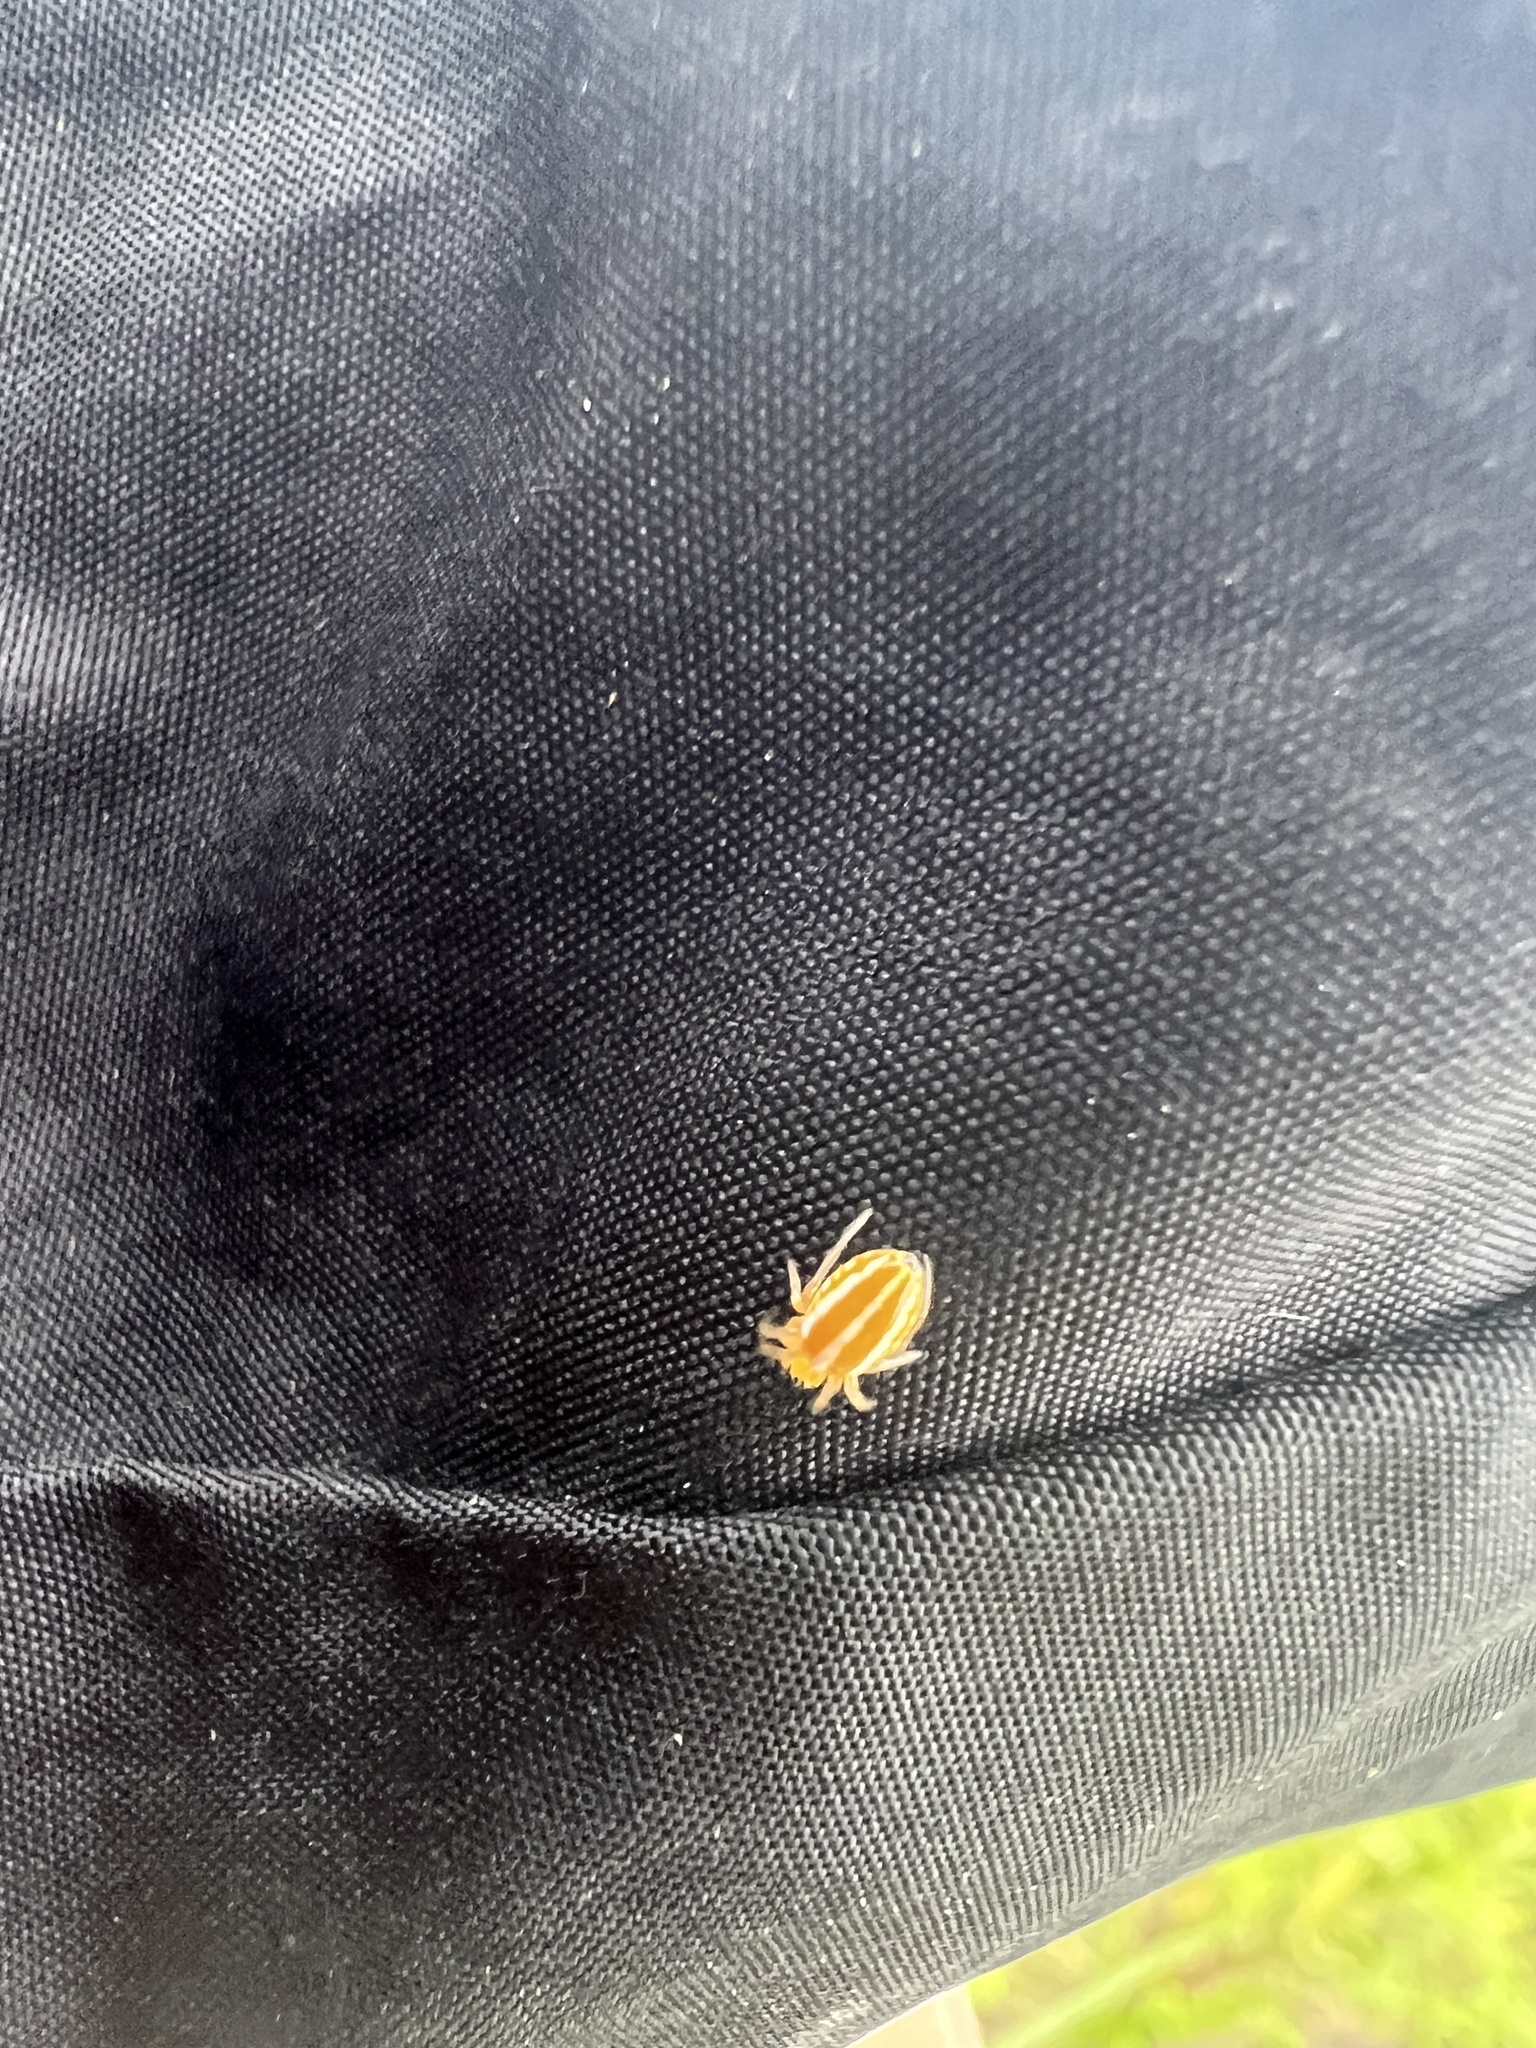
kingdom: Animalia
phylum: Arthropoda
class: Arachnida
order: Araneae
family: Araneidae
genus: Alpaida
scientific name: Alpaida rubellula
